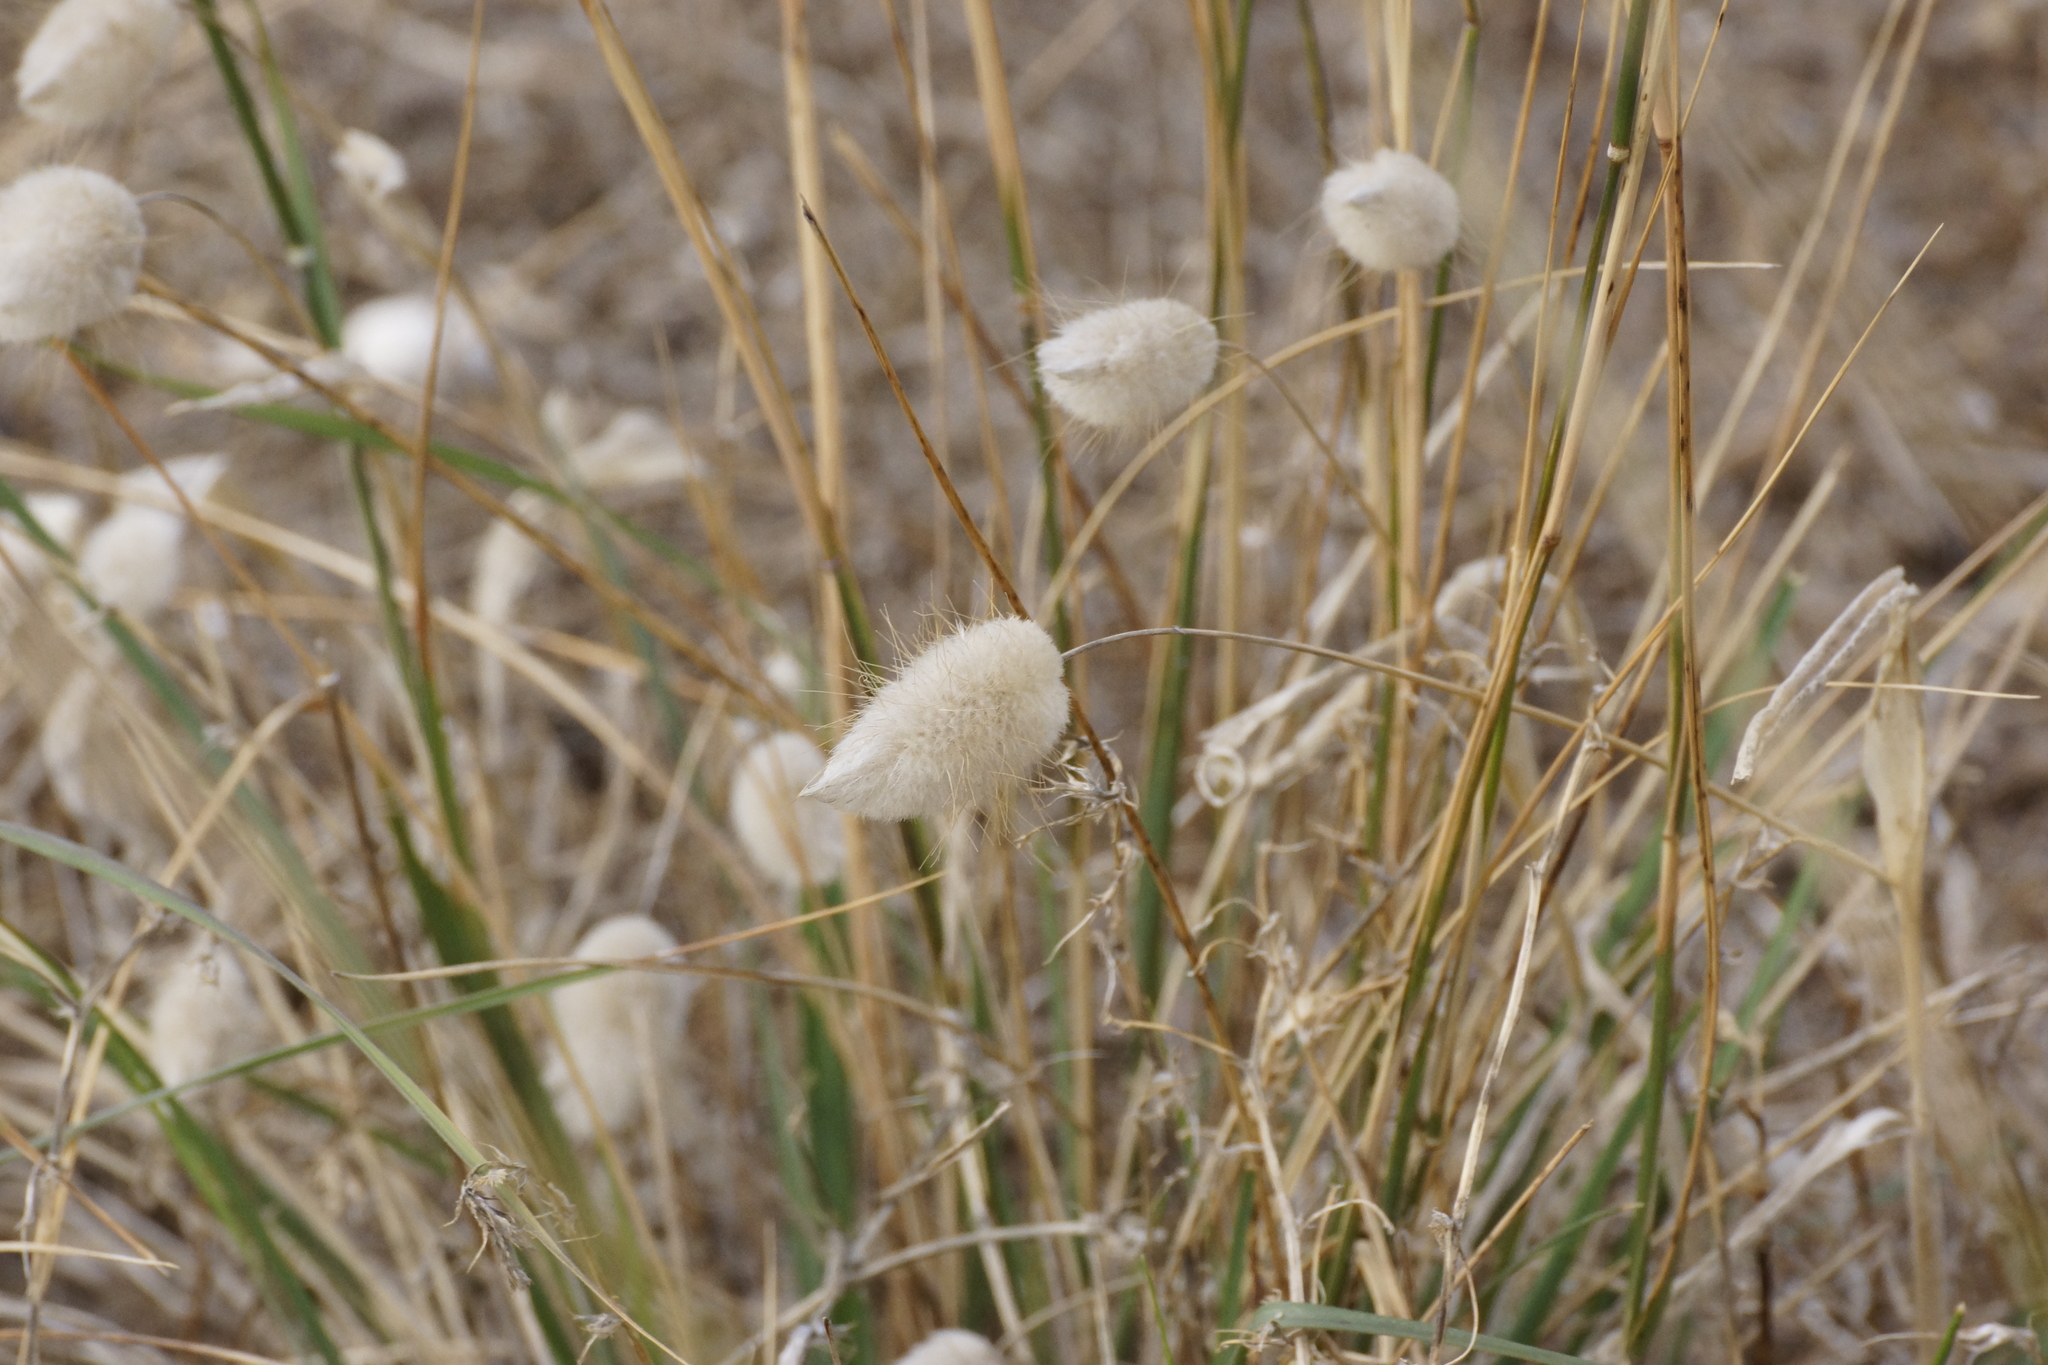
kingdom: Plantae
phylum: Tracheophyta
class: Liliopsida
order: Poales
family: Poaceae
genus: Lagurus
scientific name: Lagurus ovatus
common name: Hare's-tail
